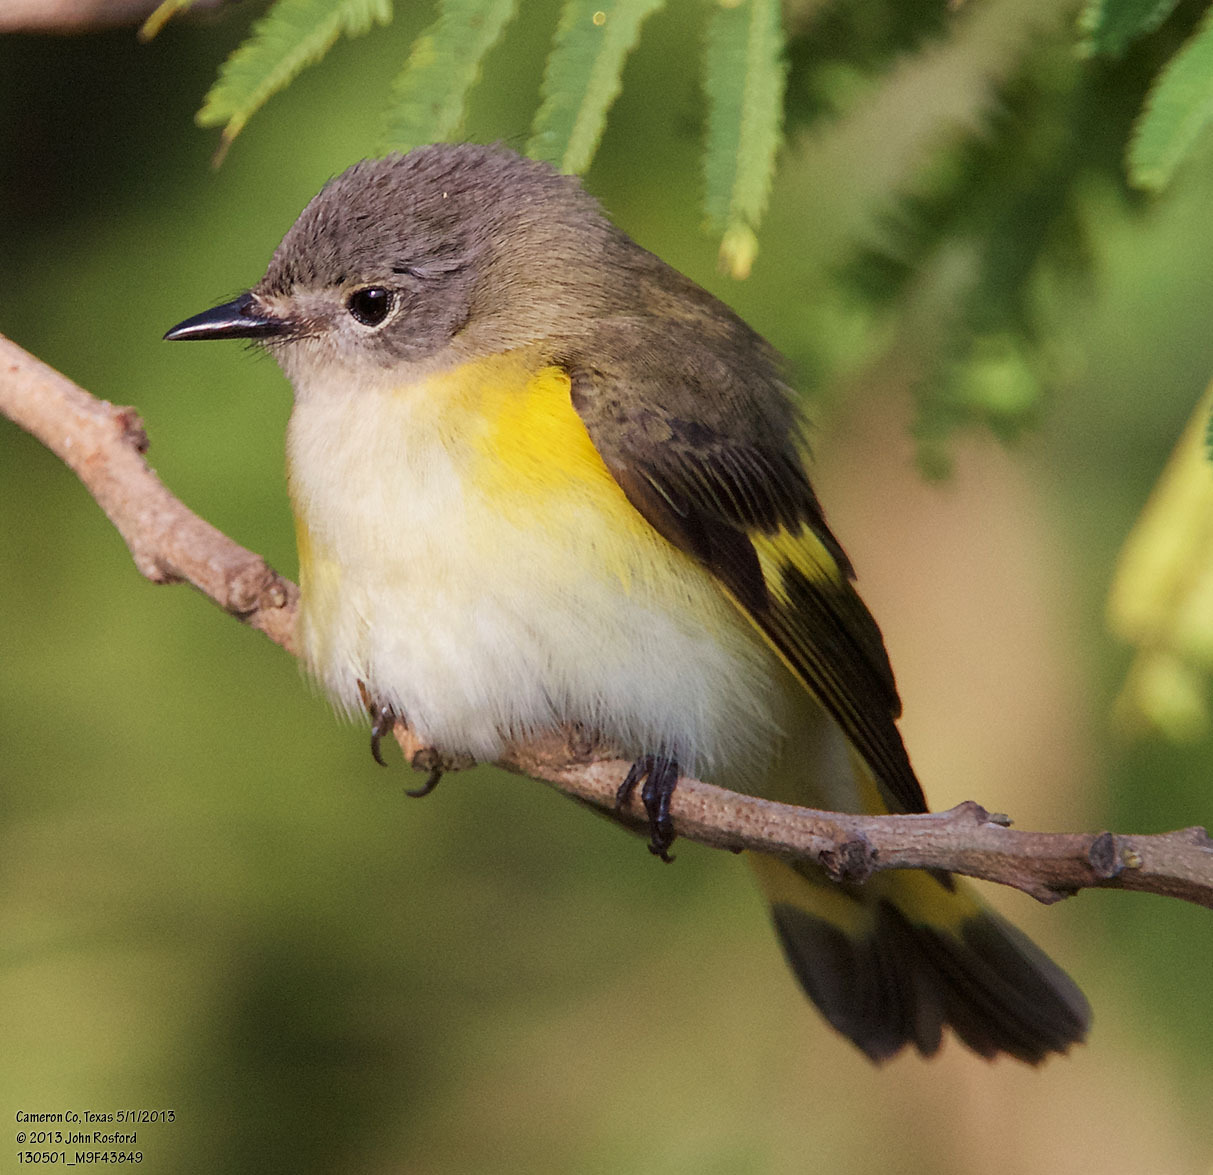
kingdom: Animalia
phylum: Chordata
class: Aves
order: Passeriformes
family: Parulidae
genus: Setophaga
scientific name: Setophaga ruticilla
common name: American redstart
